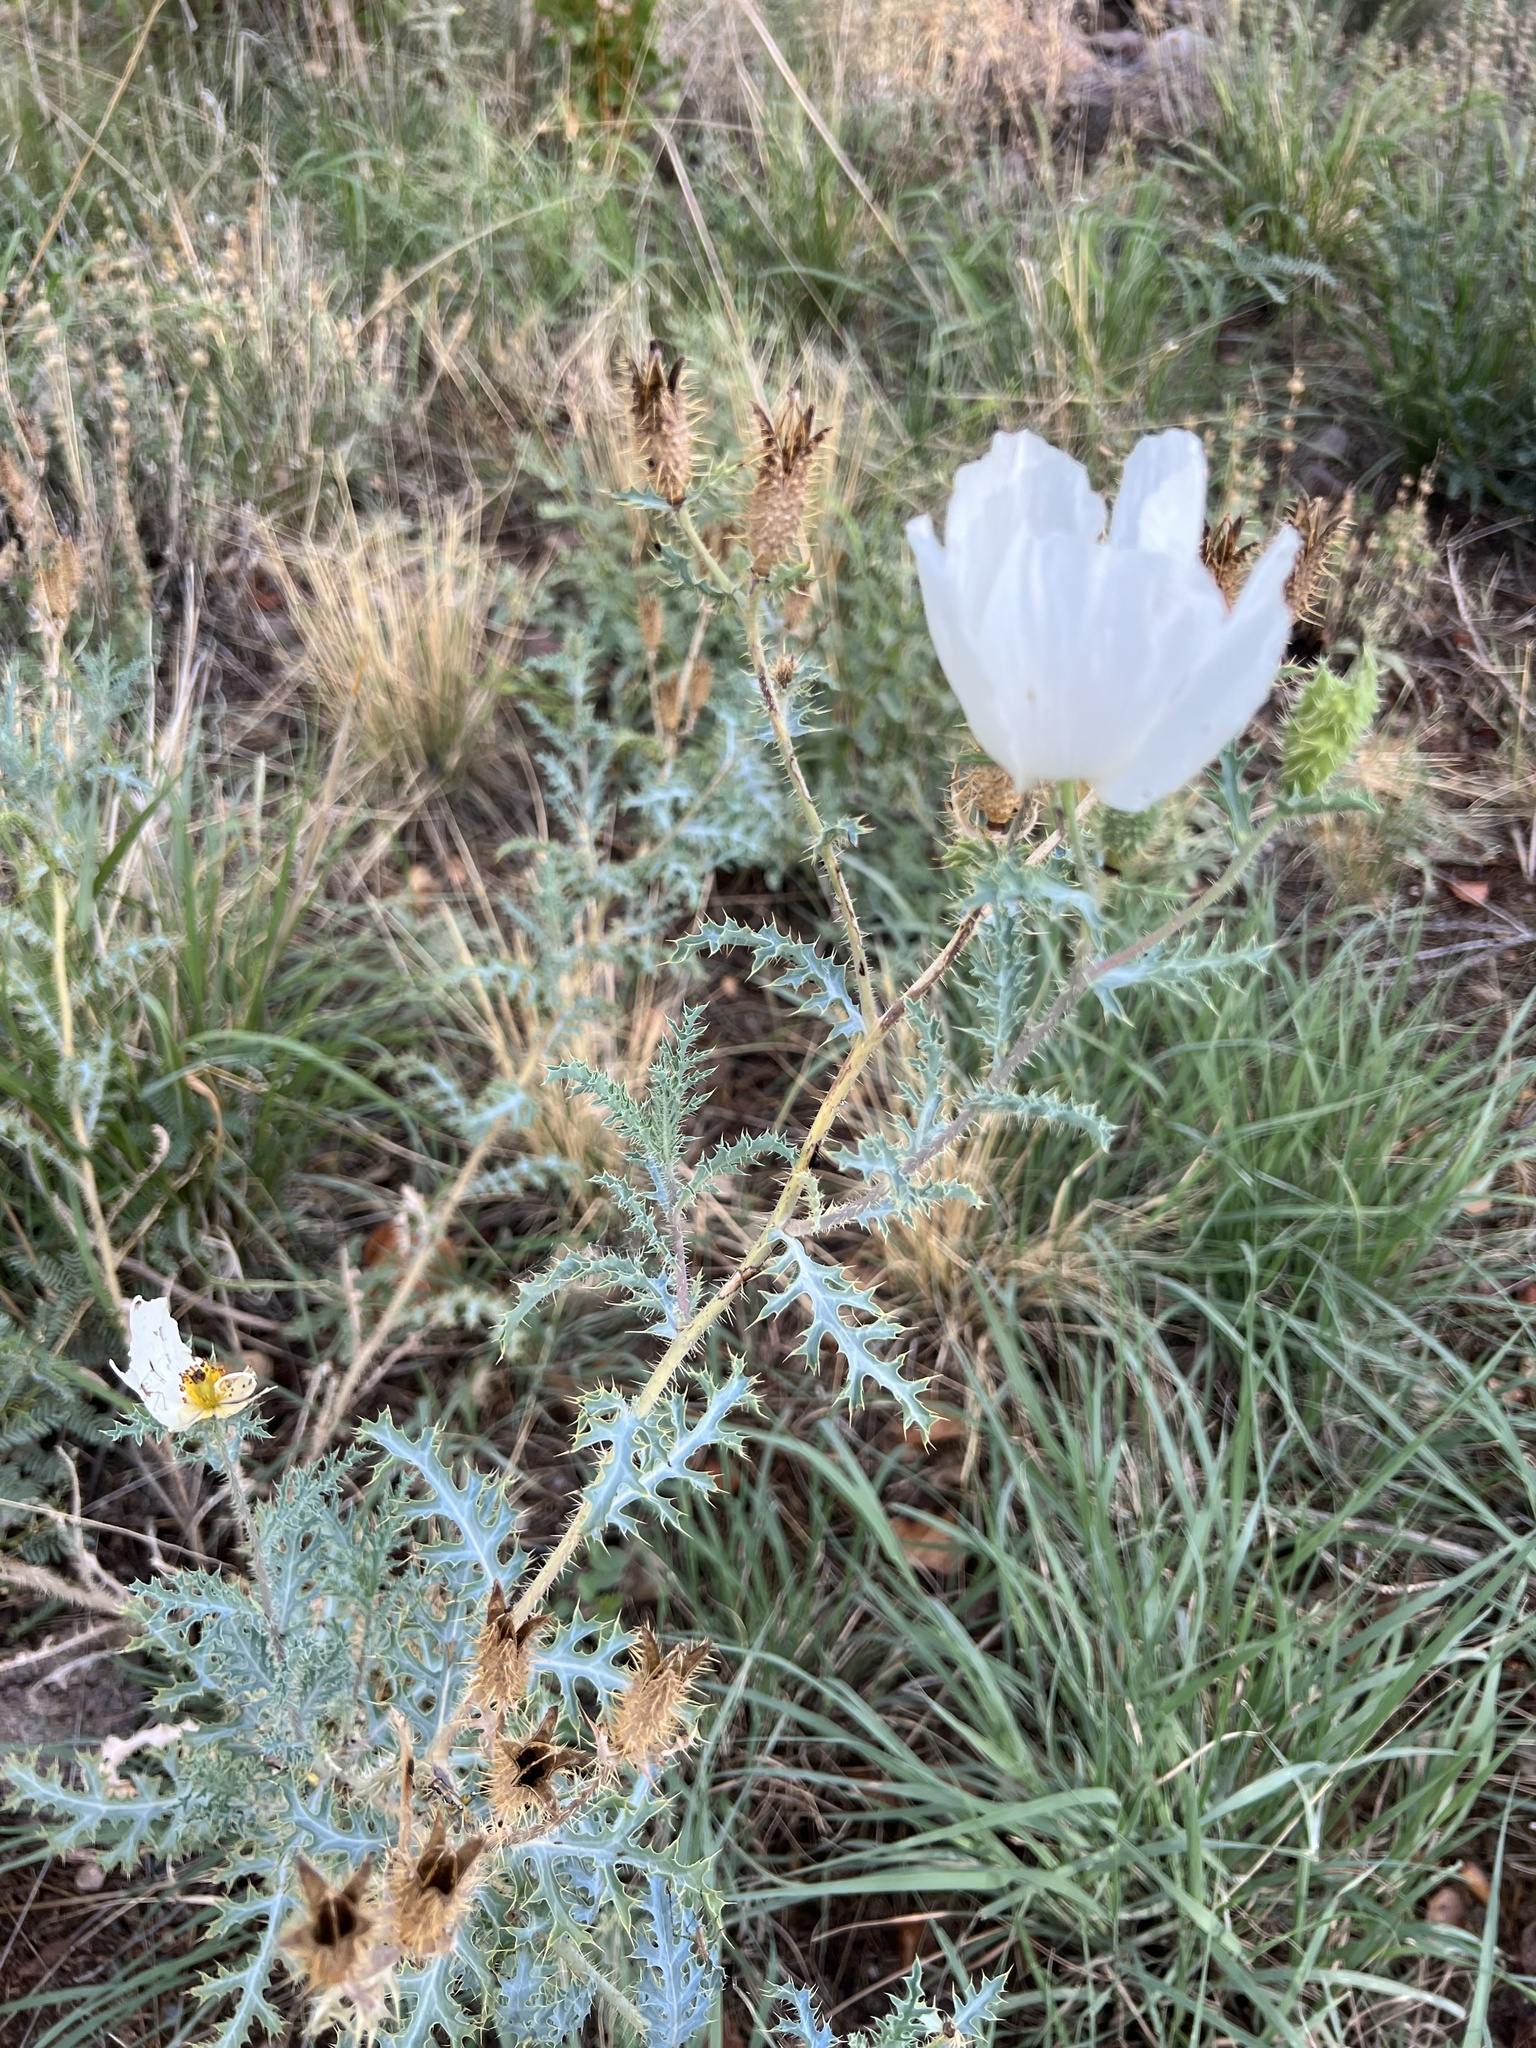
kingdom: Plantae
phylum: Tracheophyta
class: Magnoliopsida
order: Ranunculales
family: Papaveraceae
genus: Argemone
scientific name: Argemone pleiacantha
